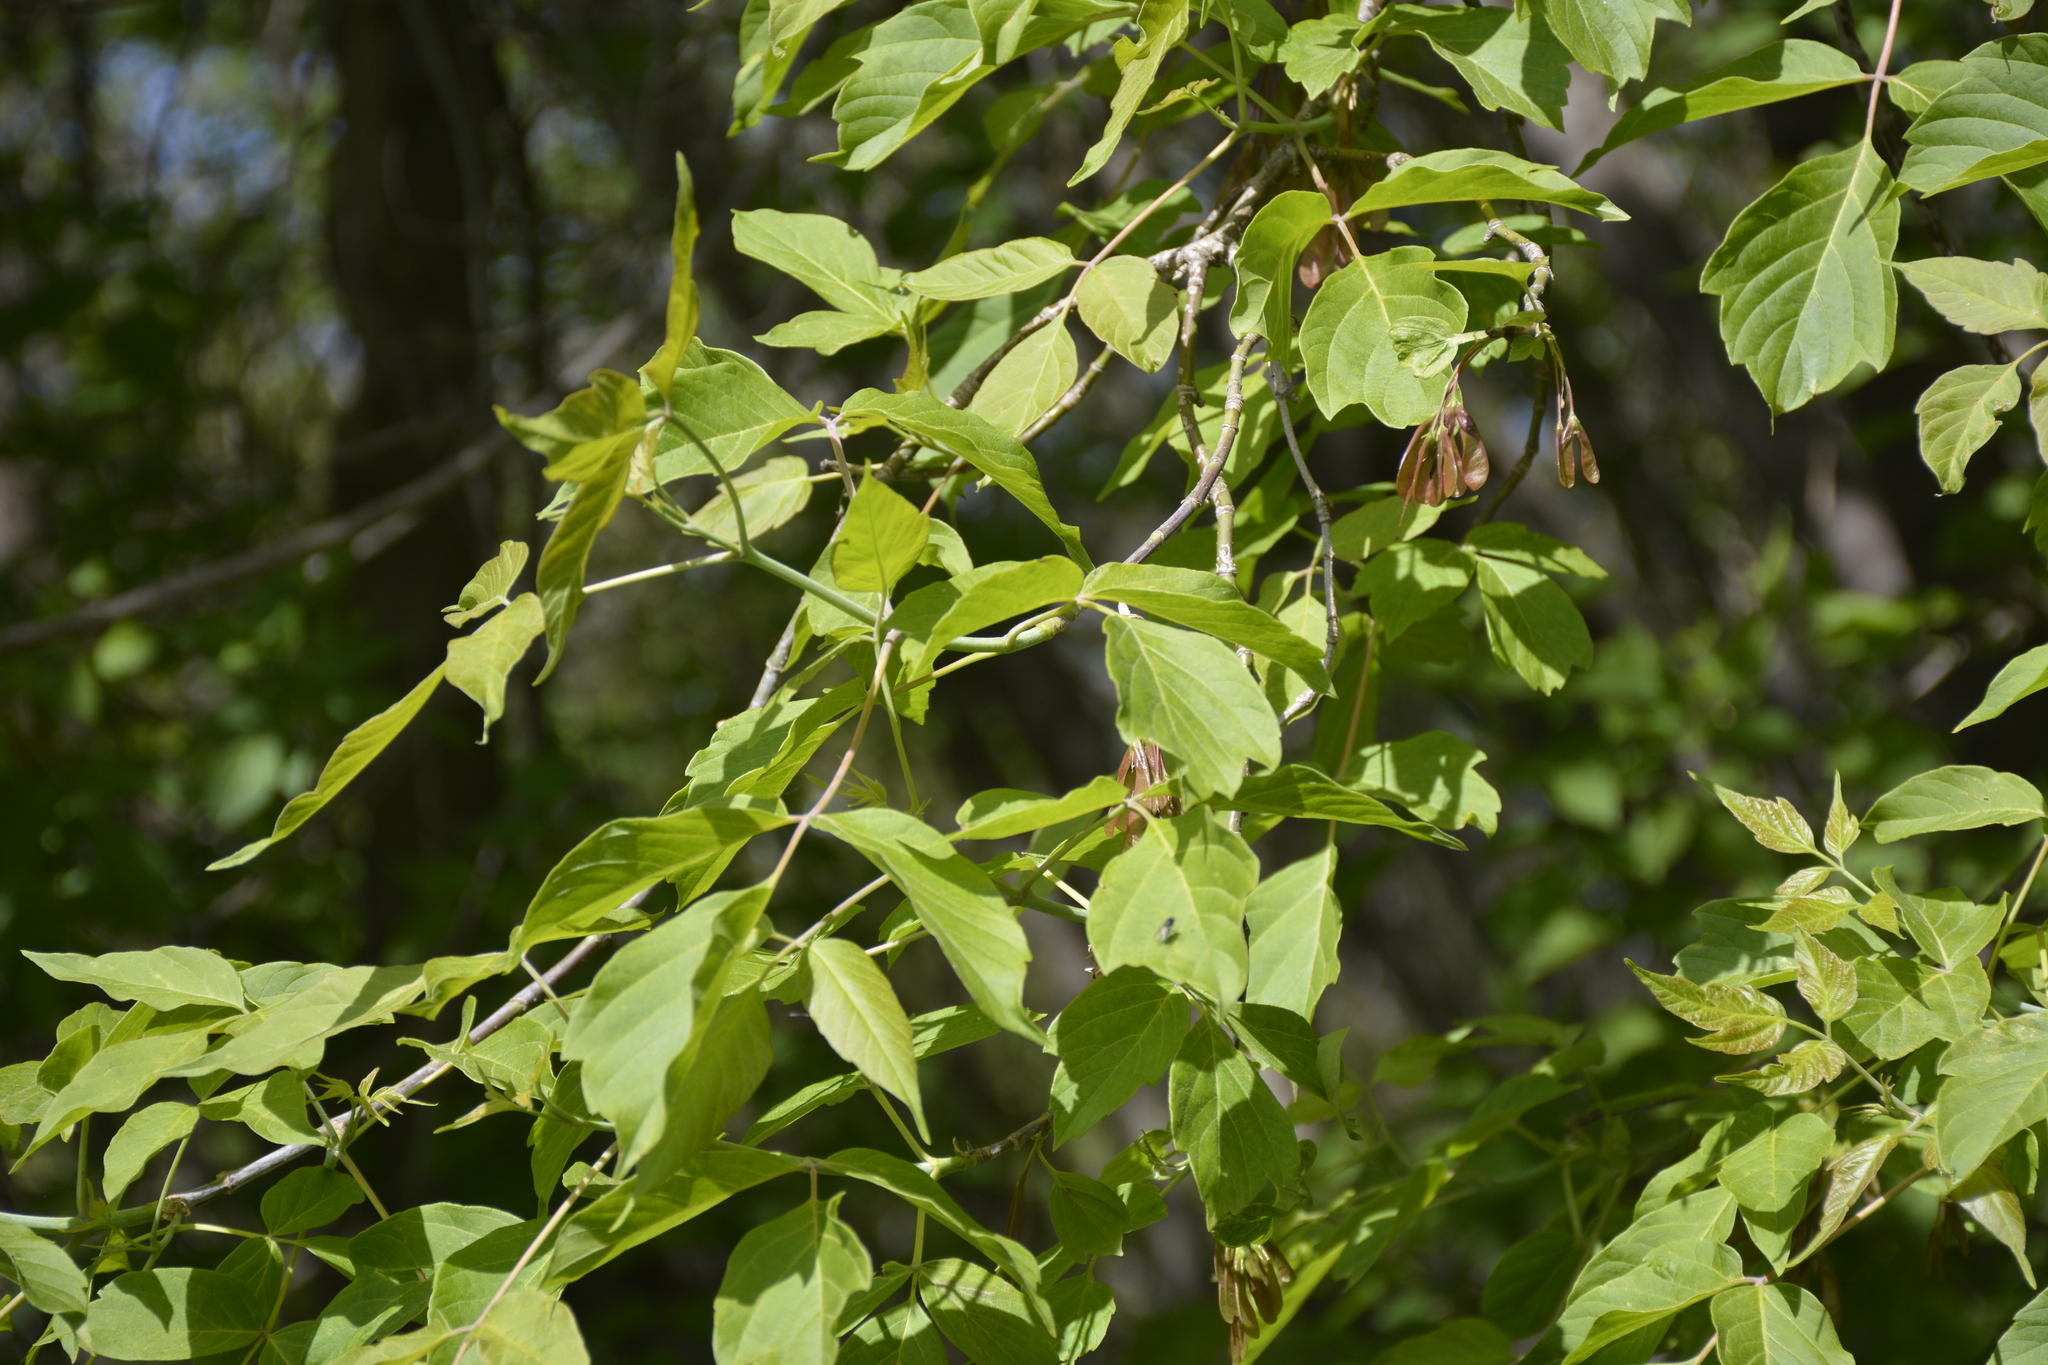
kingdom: Plantae
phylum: Tracheophyta
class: Magnoliopsida
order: Sapindales
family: Sapindaceae
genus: Acer
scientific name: Acer negundo
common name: Ashleaf maple
